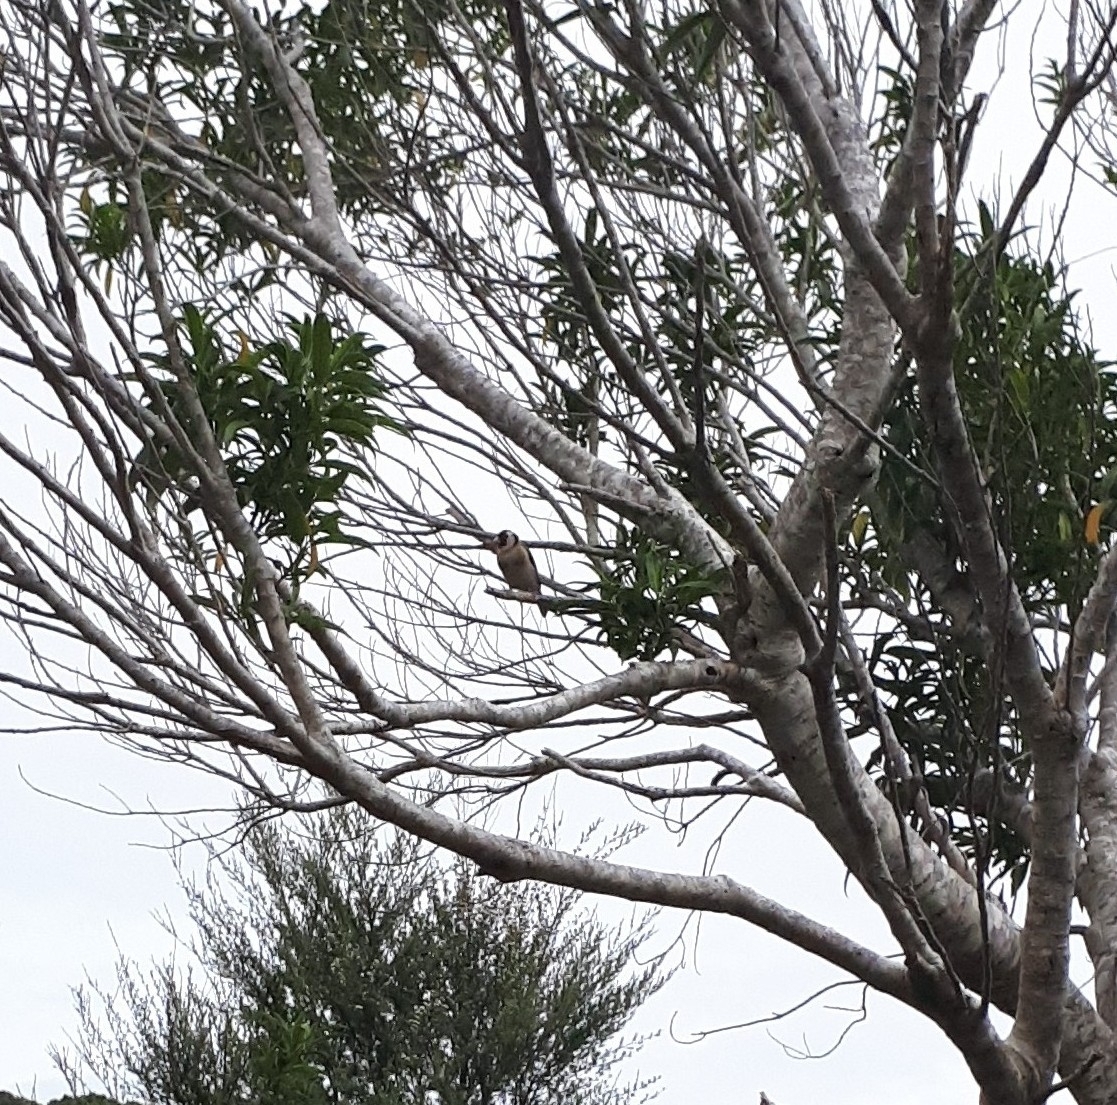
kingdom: Animalia
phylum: Chordata
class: Aves
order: Passeriformes
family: Fringillidae
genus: Carduelis
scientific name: Carduelis carduelis
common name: European goldfinch
